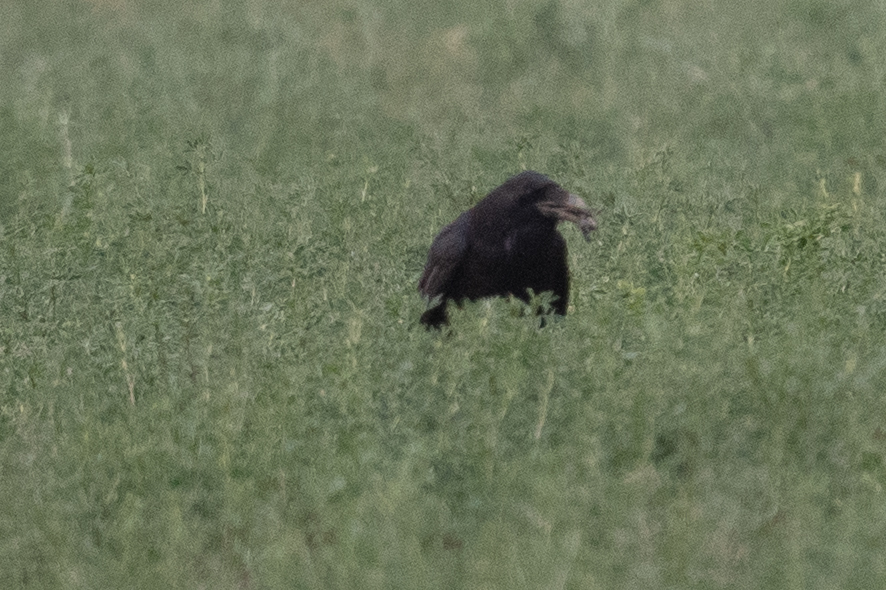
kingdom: Animalia
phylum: Chordata
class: Aves
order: Passeriformes
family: Corvidae
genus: Corvus
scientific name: Corvus corax
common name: Common raven
